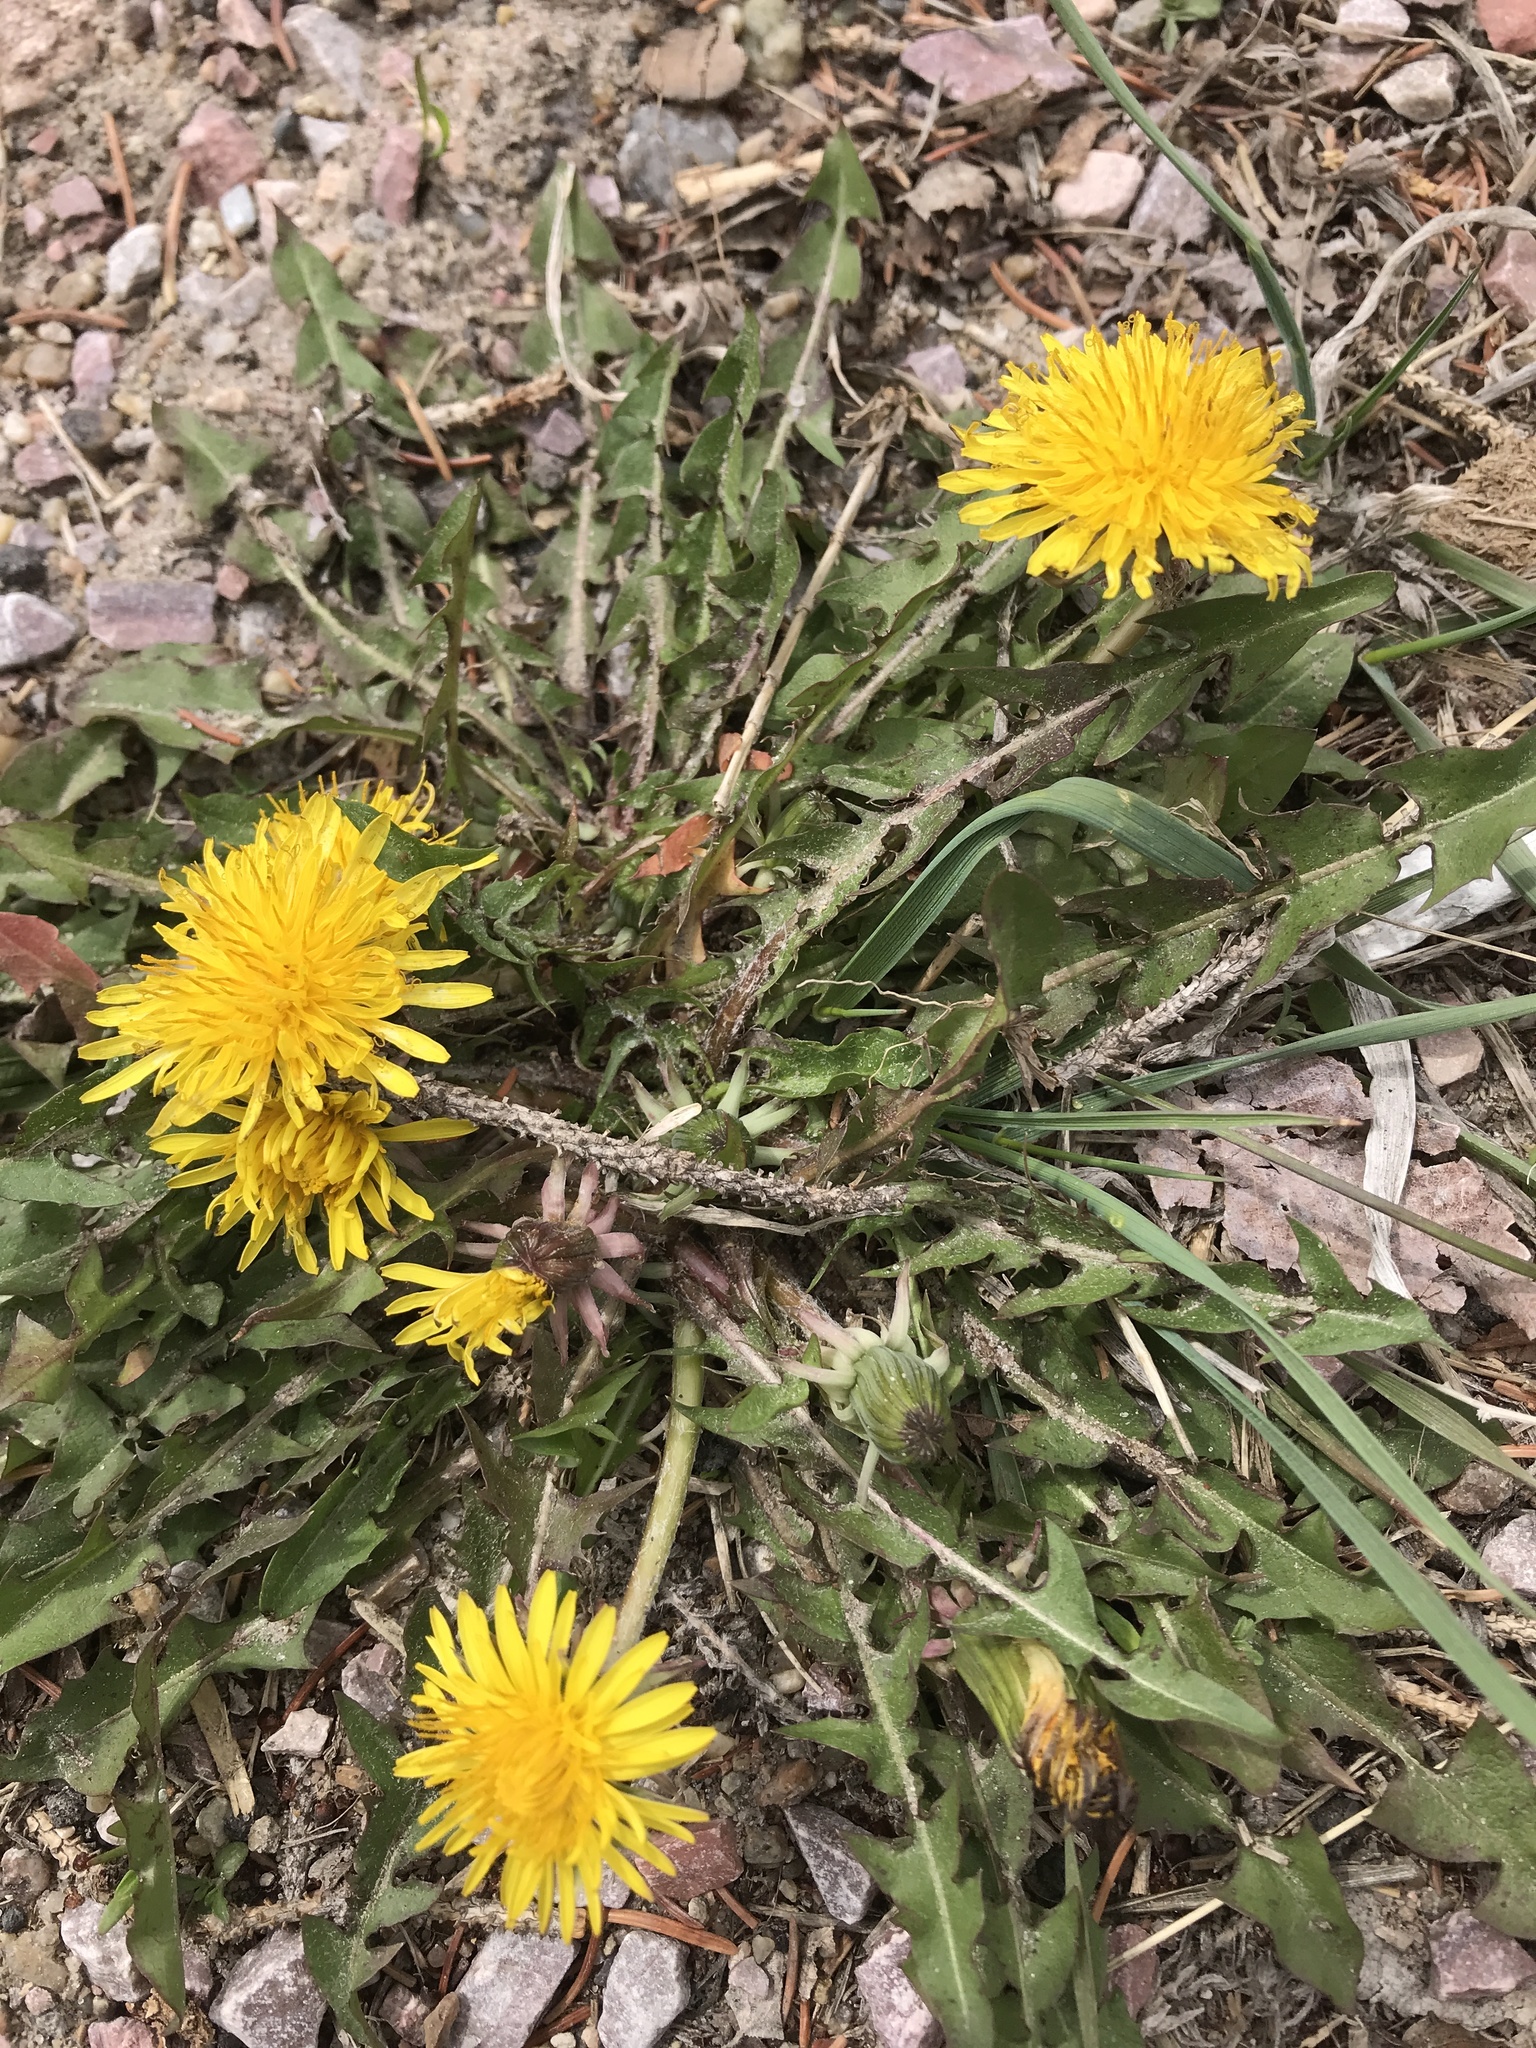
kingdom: Plantae
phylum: Tracheophyta
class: Magnoliopsida
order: Asterales
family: Asteraceae
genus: Taraxacum
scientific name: Taraxacum
